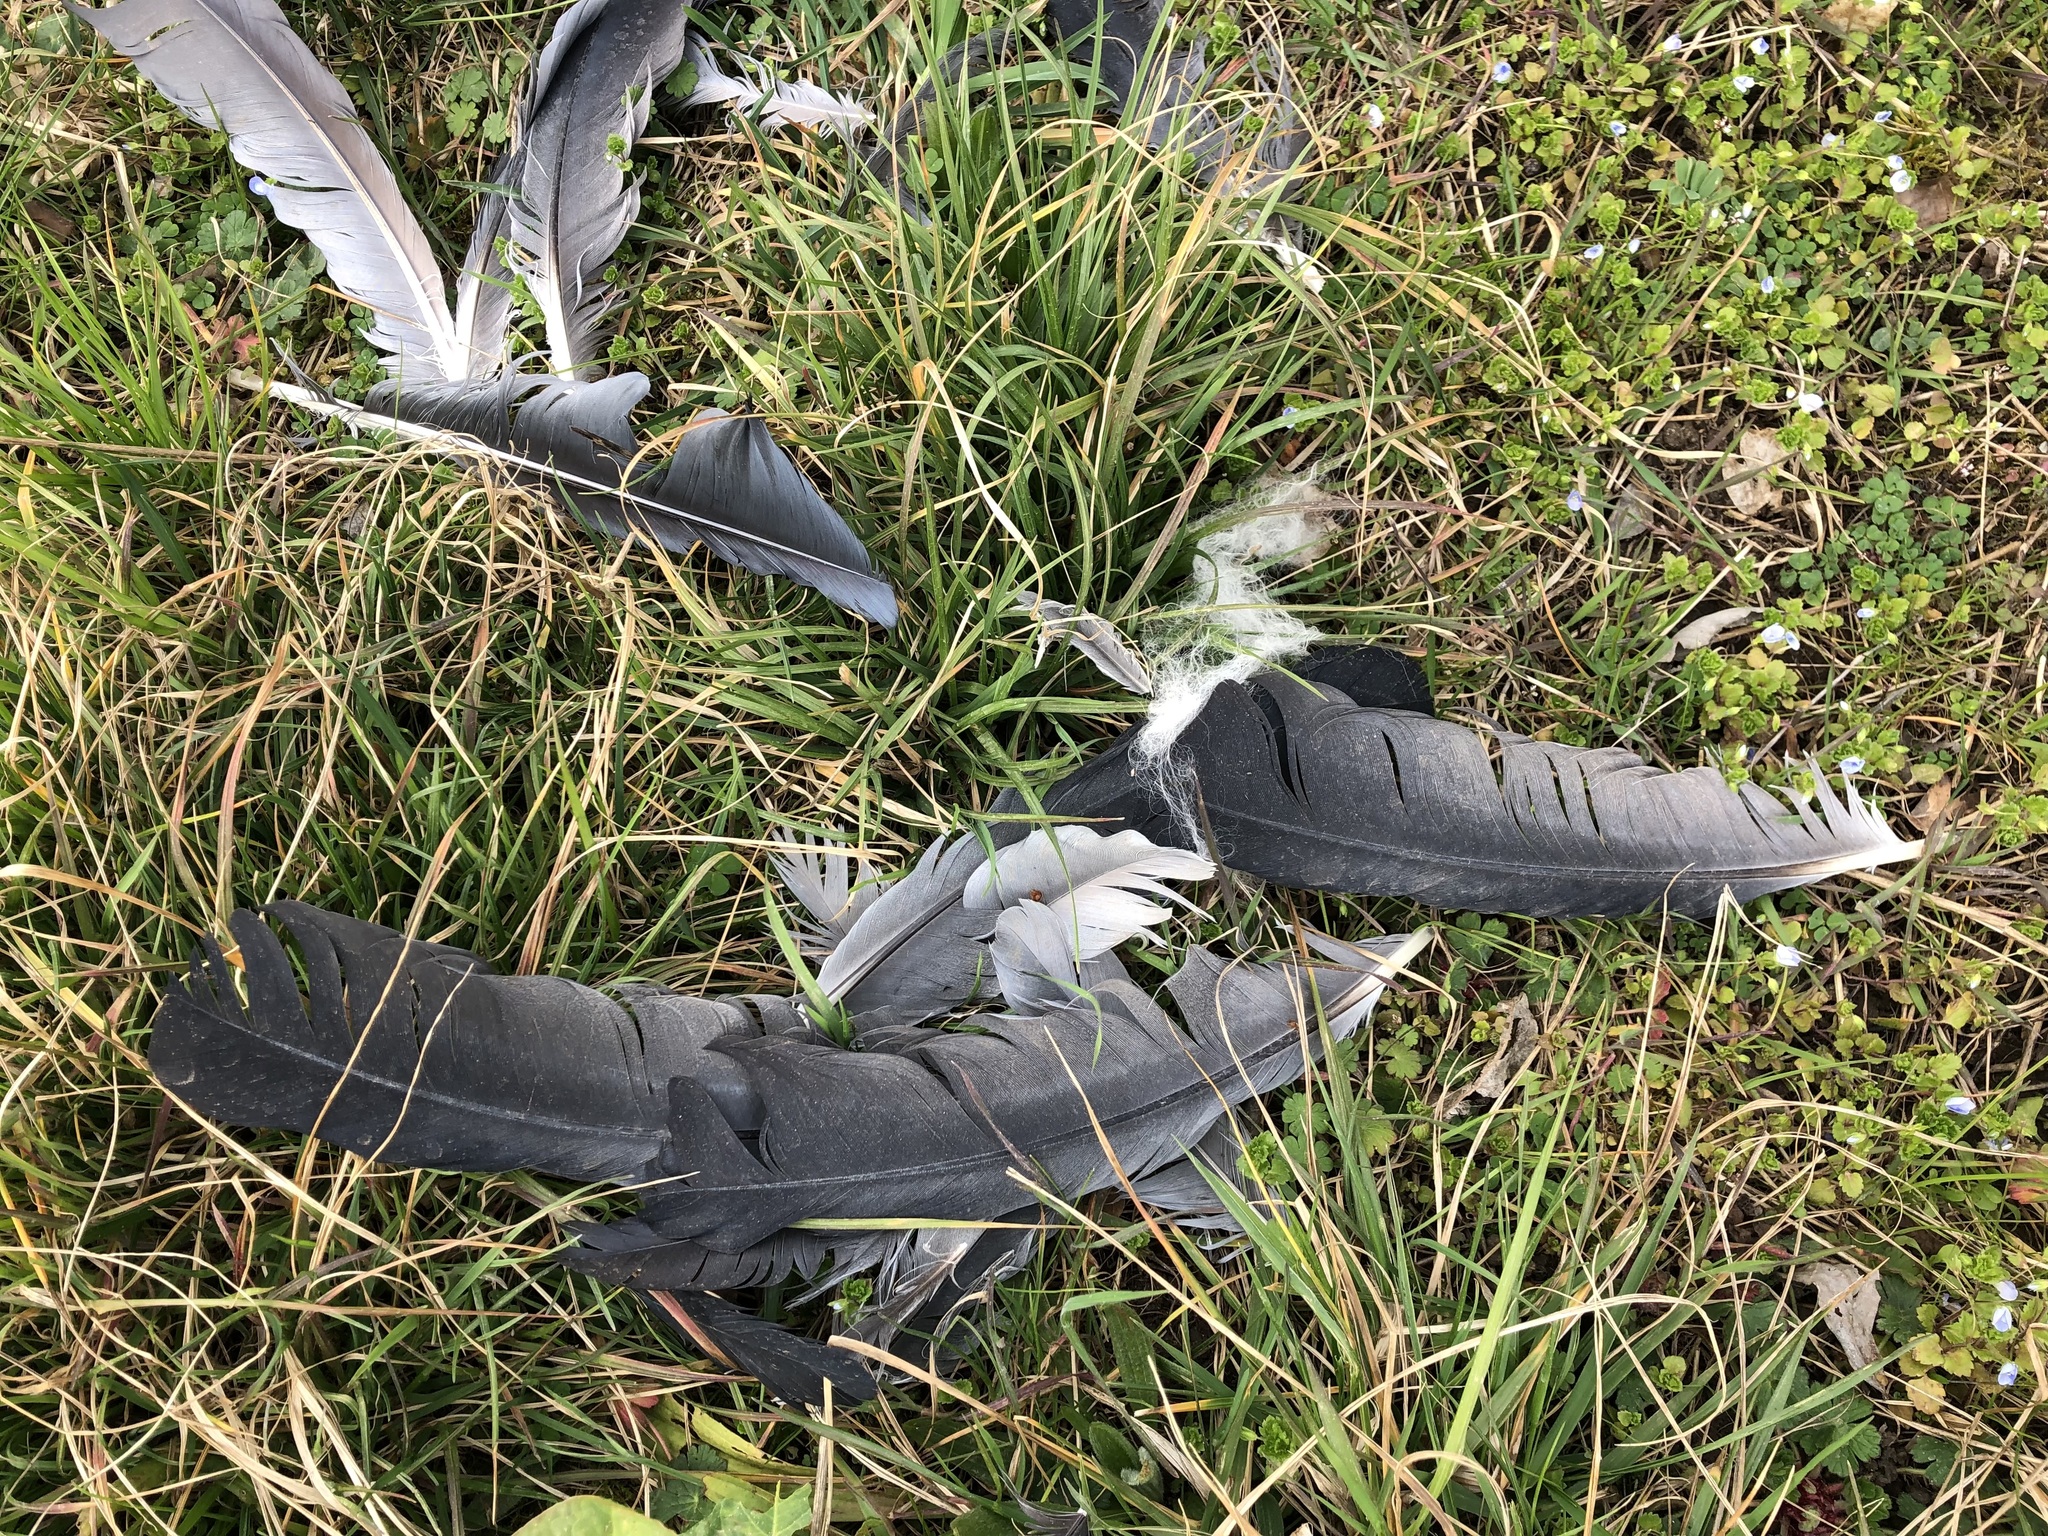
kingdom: Animalia
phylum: Chordata
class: Aves
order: Pelecaniformes
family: Ardeidae
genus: Ardea
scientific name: Ardea cinerea
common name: Grey heron
